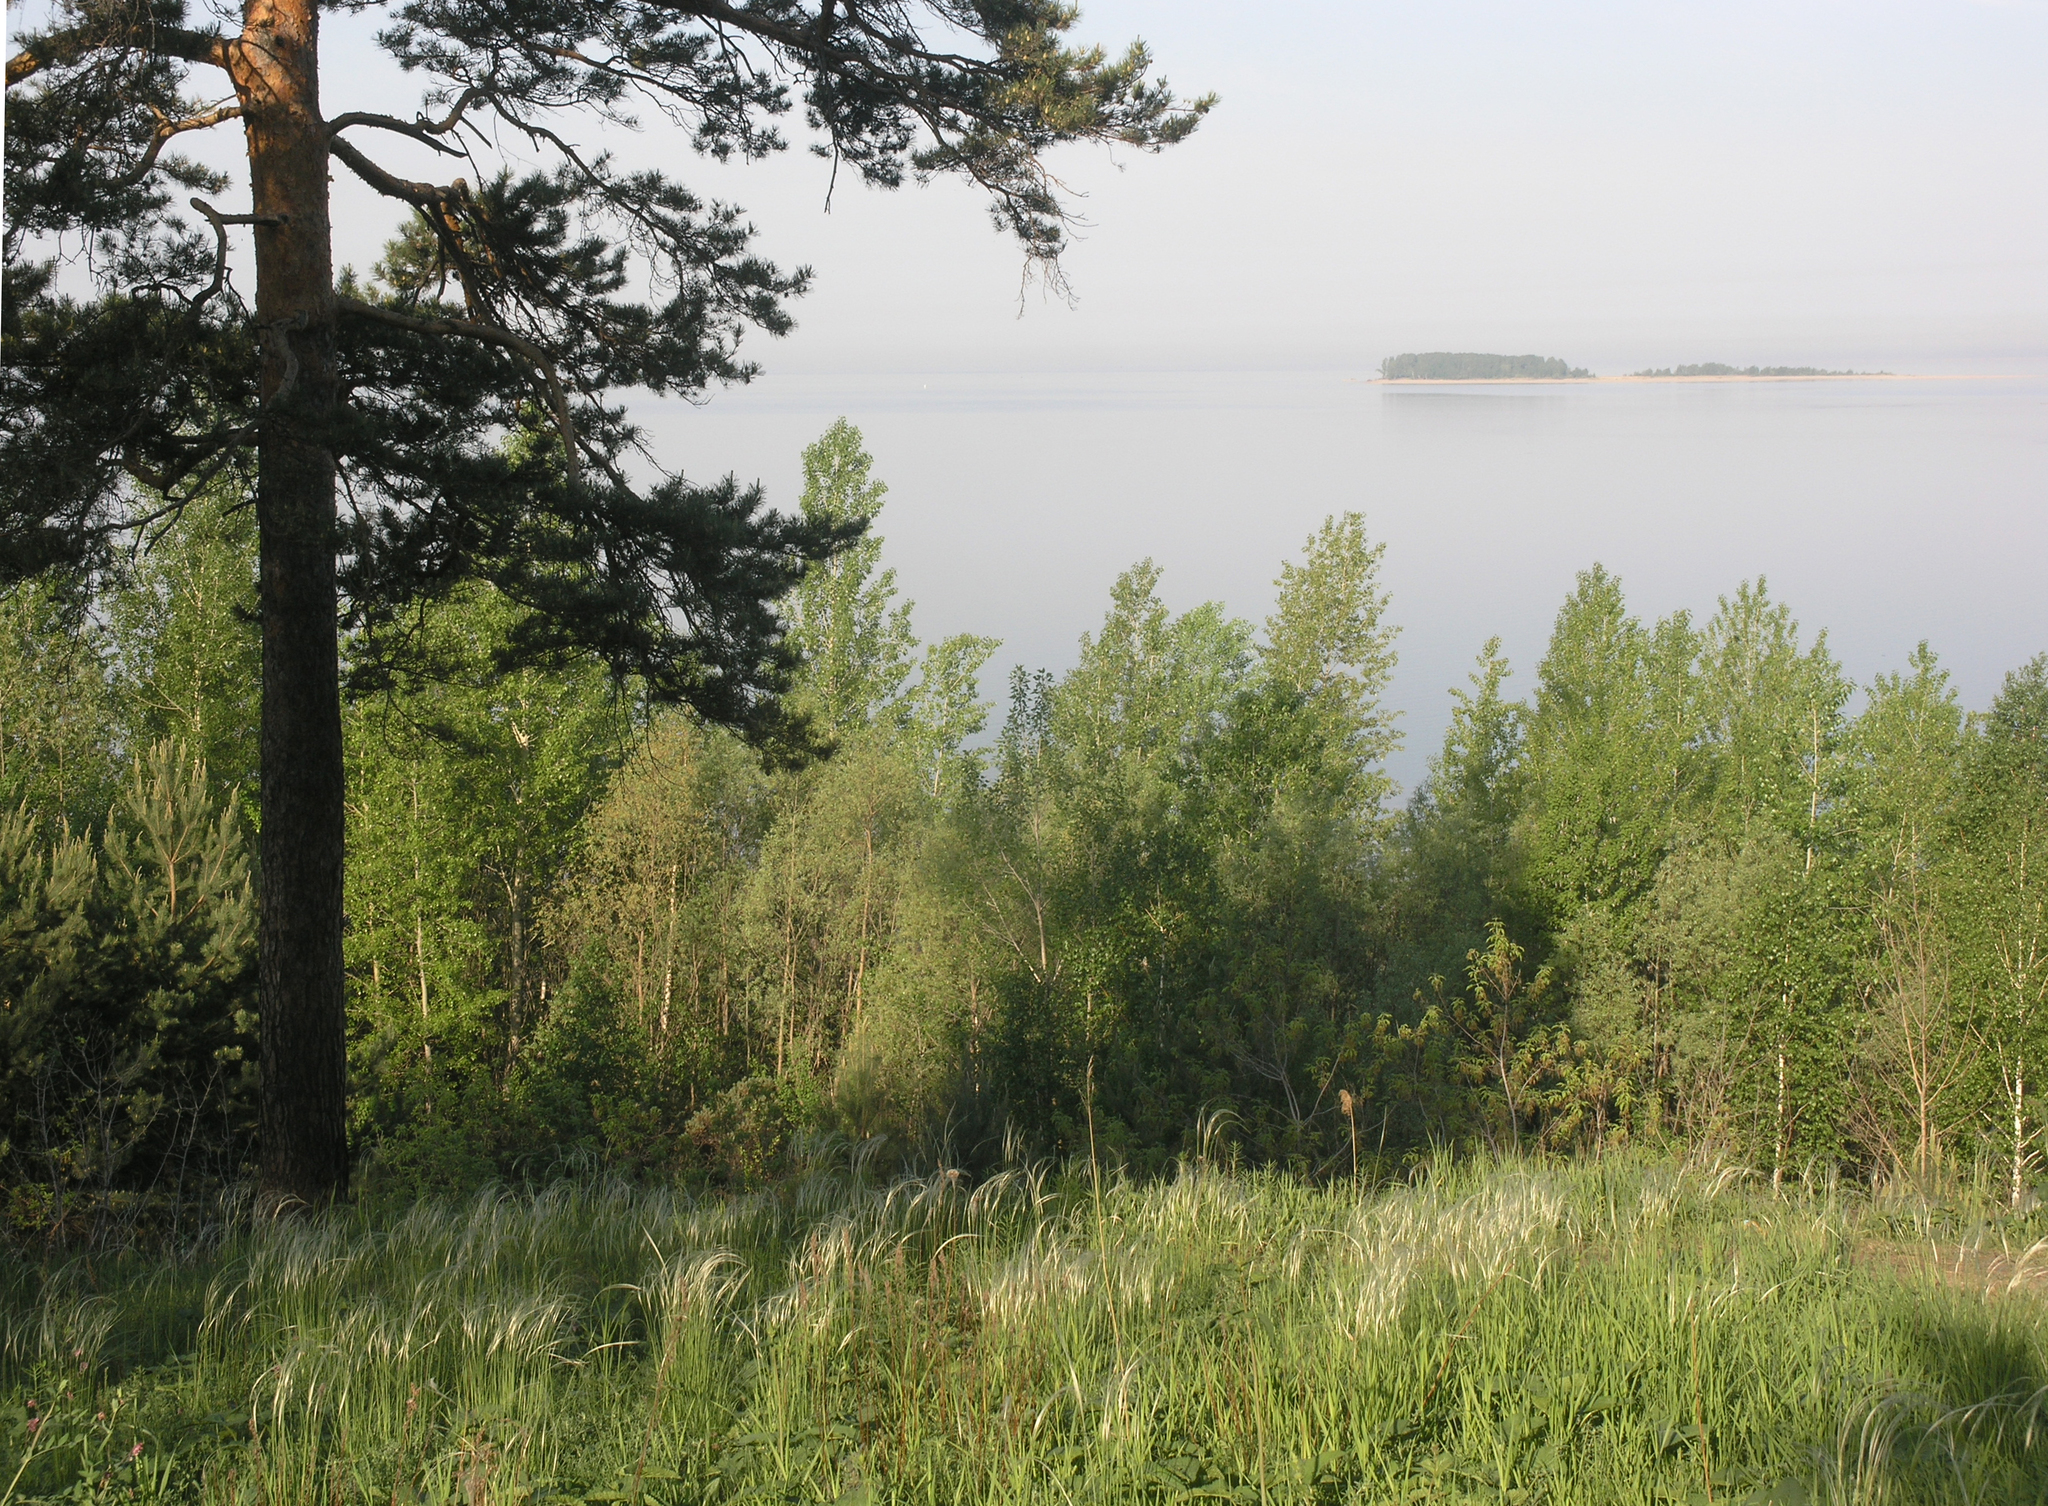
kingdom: Plantae
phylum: Tracheophyta
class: Pinopsida
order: Pinales
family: Pinaceae
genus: Pinus
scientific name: Pinus sylvestris
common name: Scots pine
